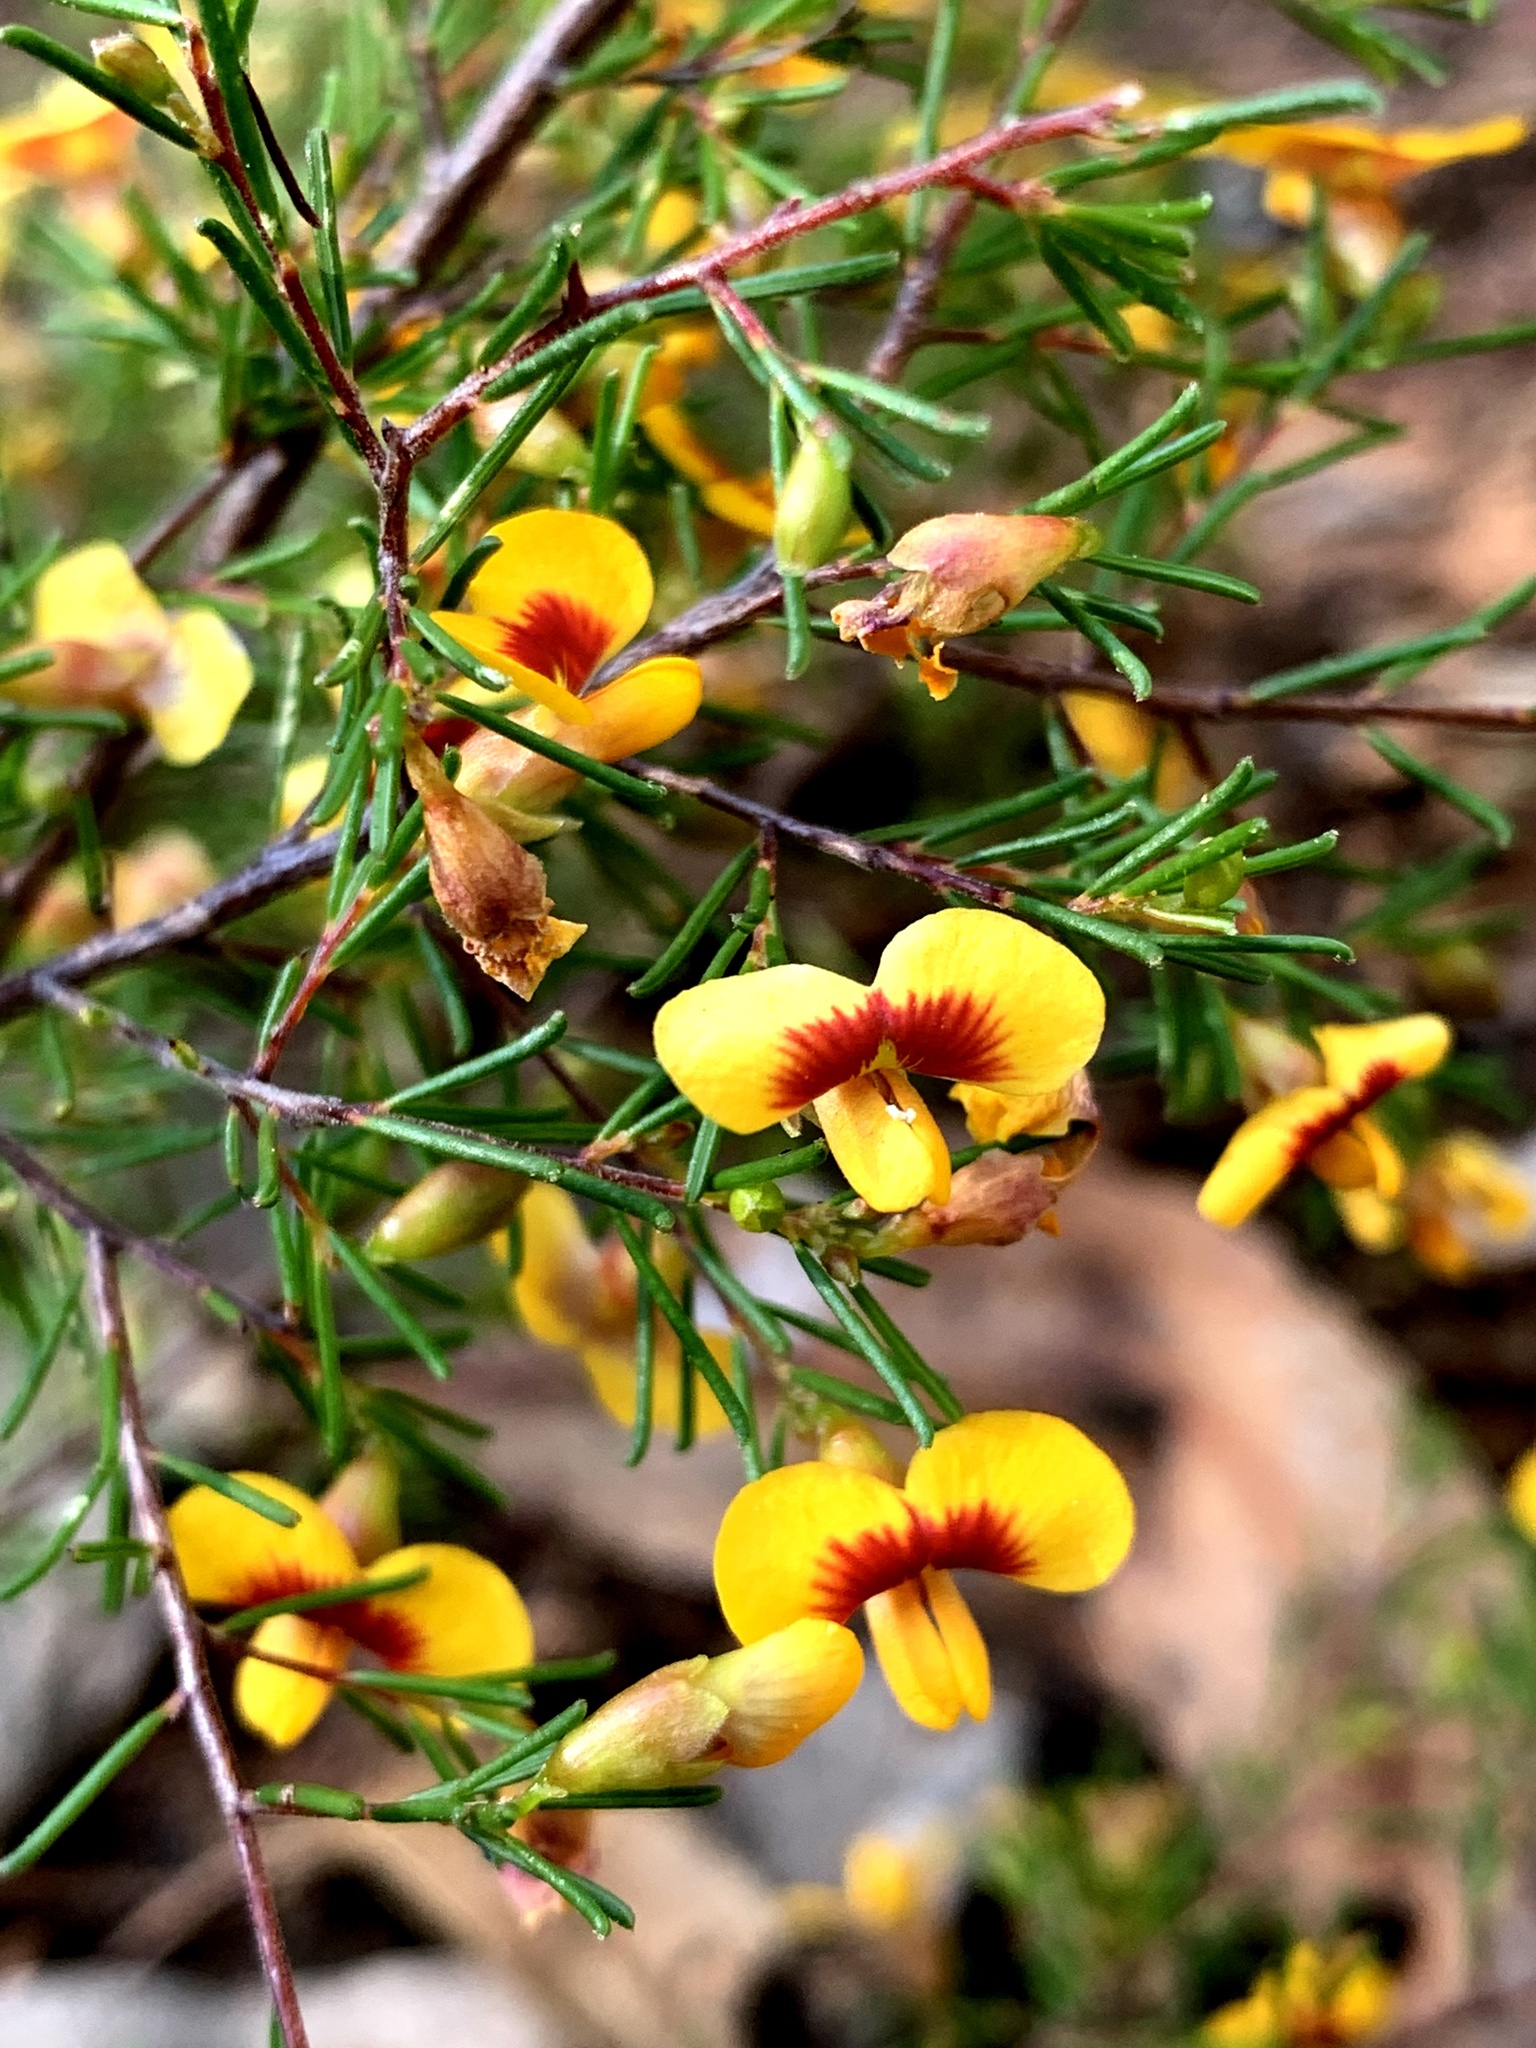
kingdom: Plantae
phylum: Tracheophyta
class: Magnoliopsida
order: Fabales
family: Fabaceae
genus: Dillwynia
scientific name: Dillwynia tenuifolia
